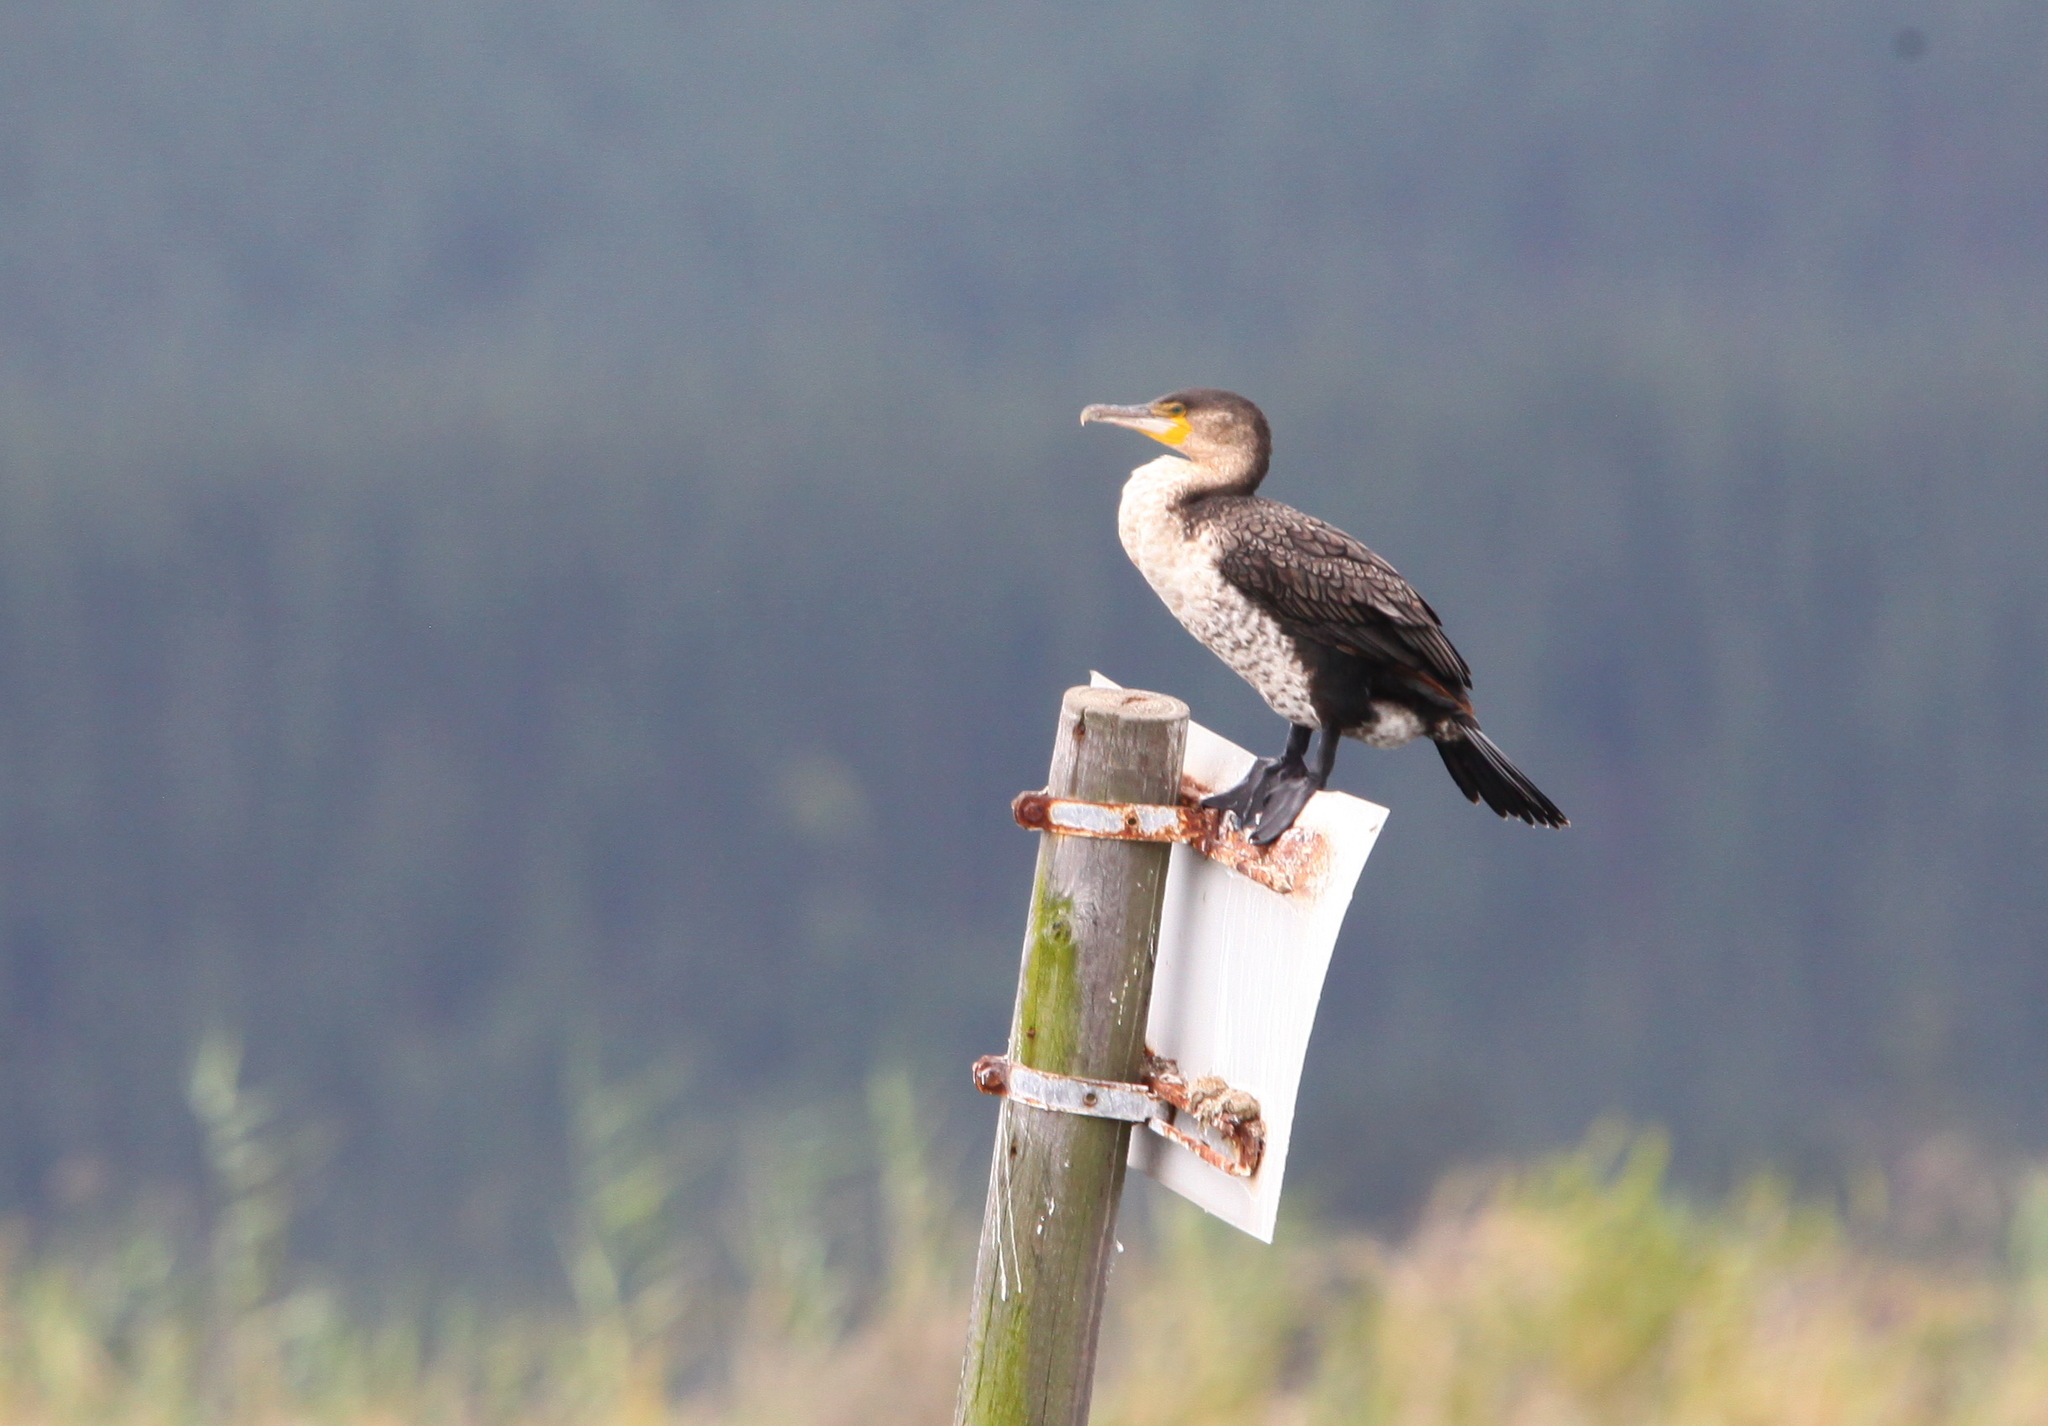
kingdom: Animalia
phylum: Chordata
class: Aves
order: Suliformes
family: Phalacrocoracidae
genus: Phalacrocorax
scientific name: Phalacrocorax carbo
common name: Great cormorant
